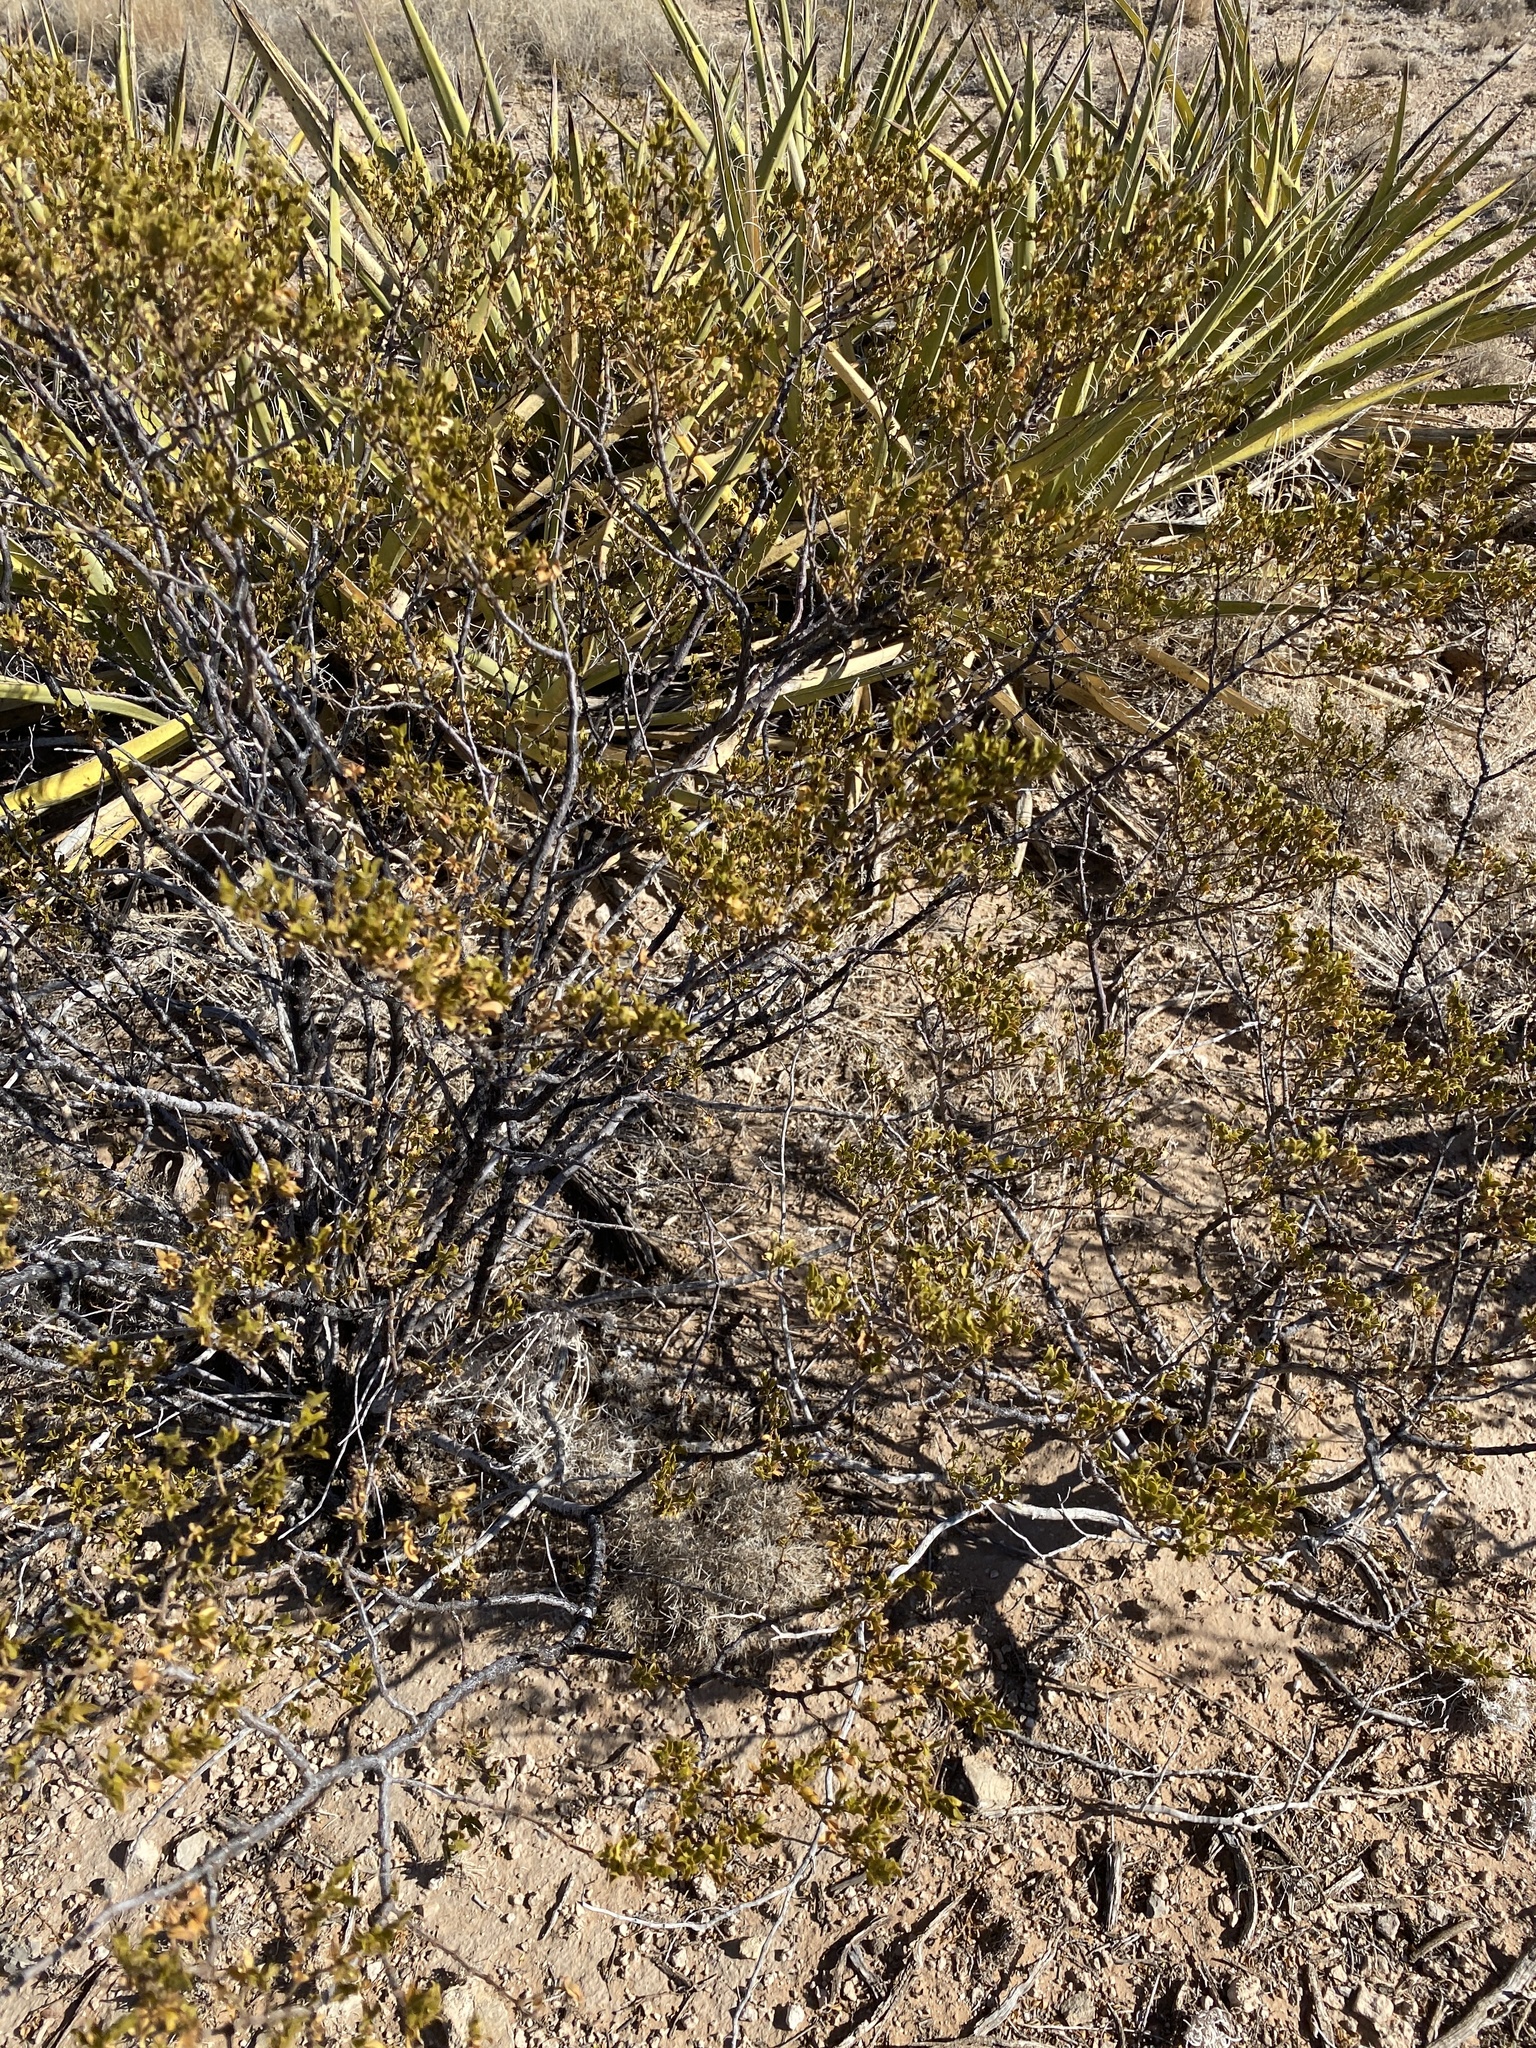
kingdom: Plantae
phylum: Tracheophyta
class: Magnoliopsida
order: Zygophyllales
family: Zygophyllaceae
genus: Larrea
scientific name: Larrea tridentata
